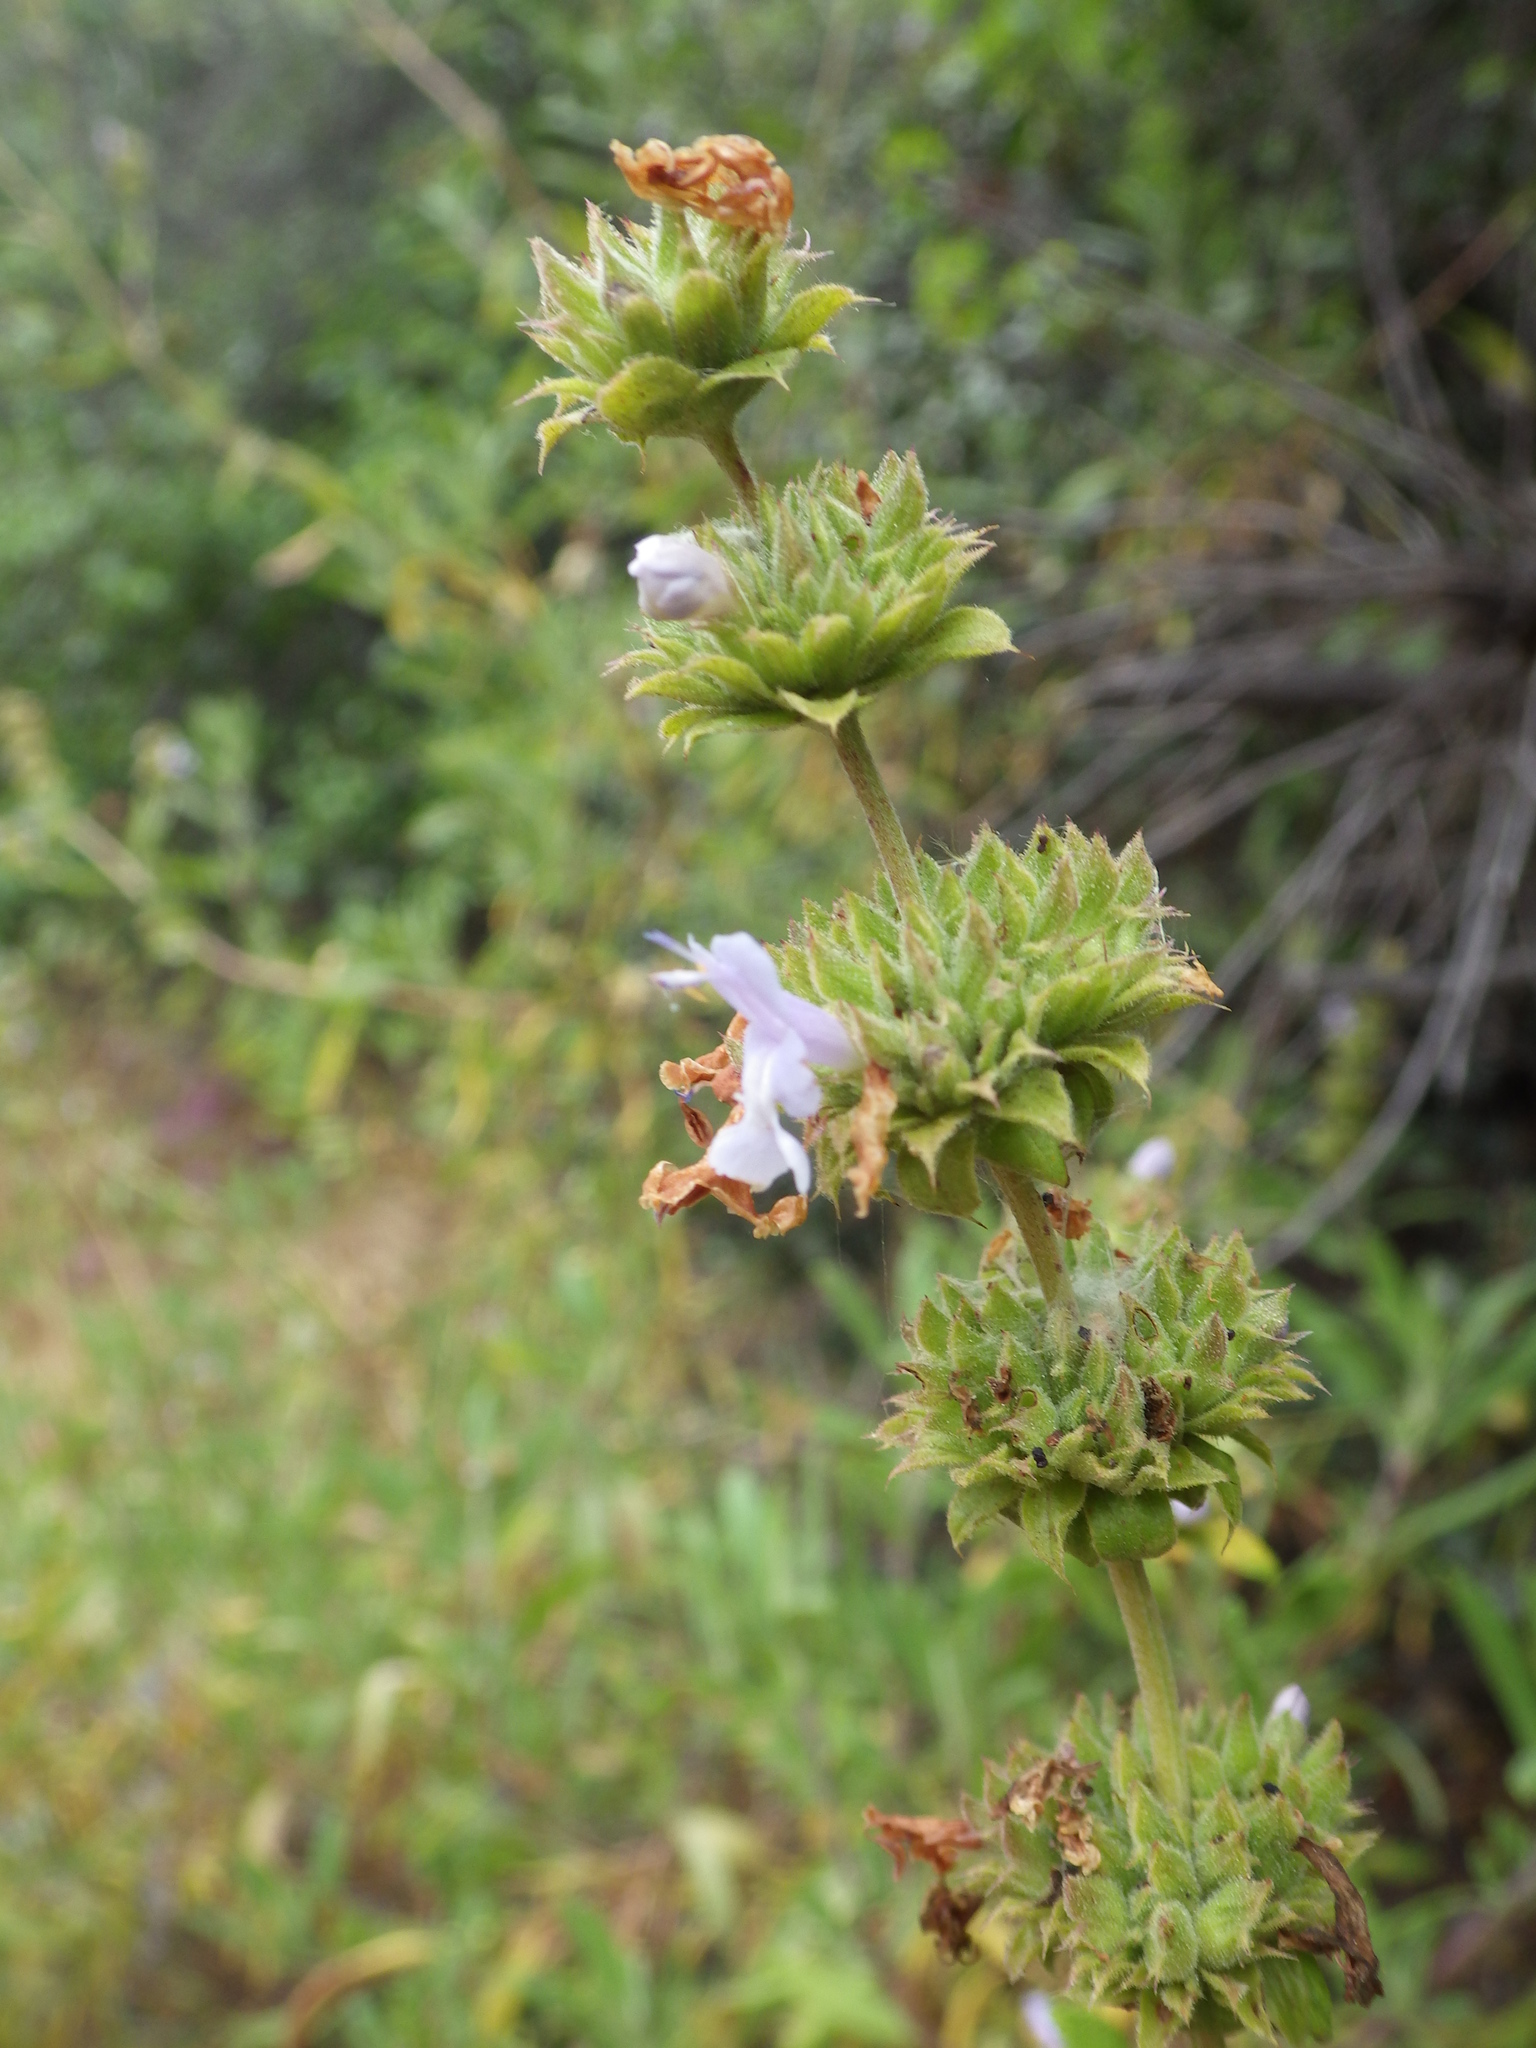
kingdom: Plantae
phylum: Tracheophyta
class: Magnoliopsida
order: Lamiales
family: Lamiaceae
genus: Salvia
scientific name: Salvia mellifera
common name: Black sage
